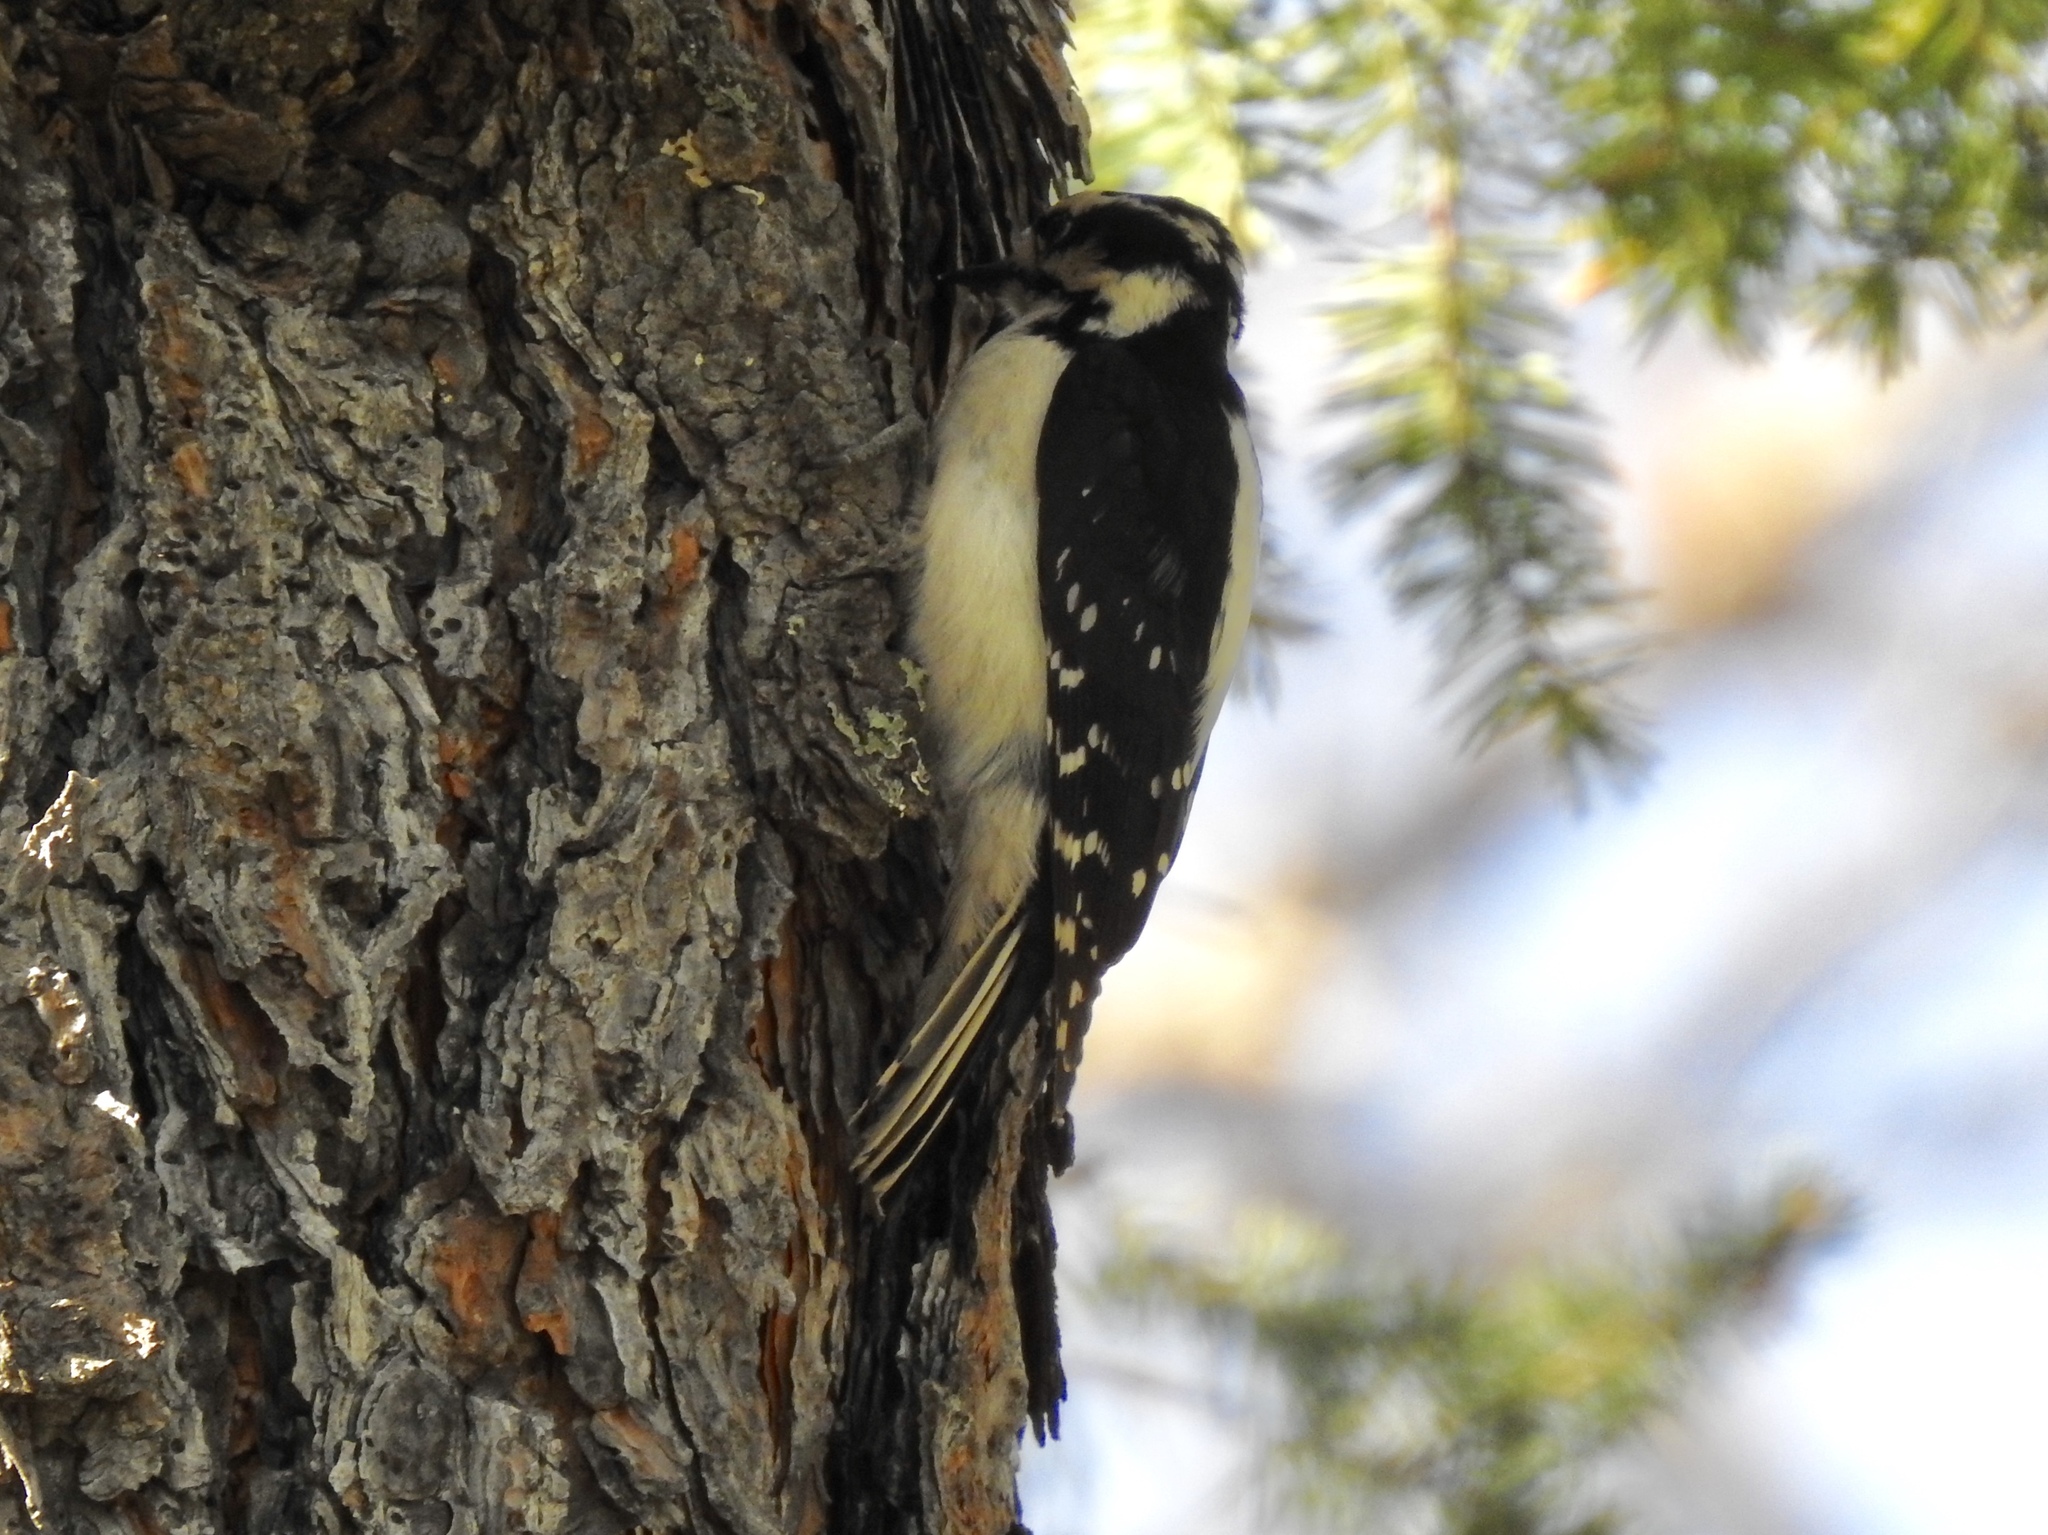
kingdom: Animalia
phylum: Chordata
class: Aves
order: Piciformes
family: Picidae
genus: Leuconotopicus
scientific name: Leuconotopicus villosus
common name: Hairy woodpecker
